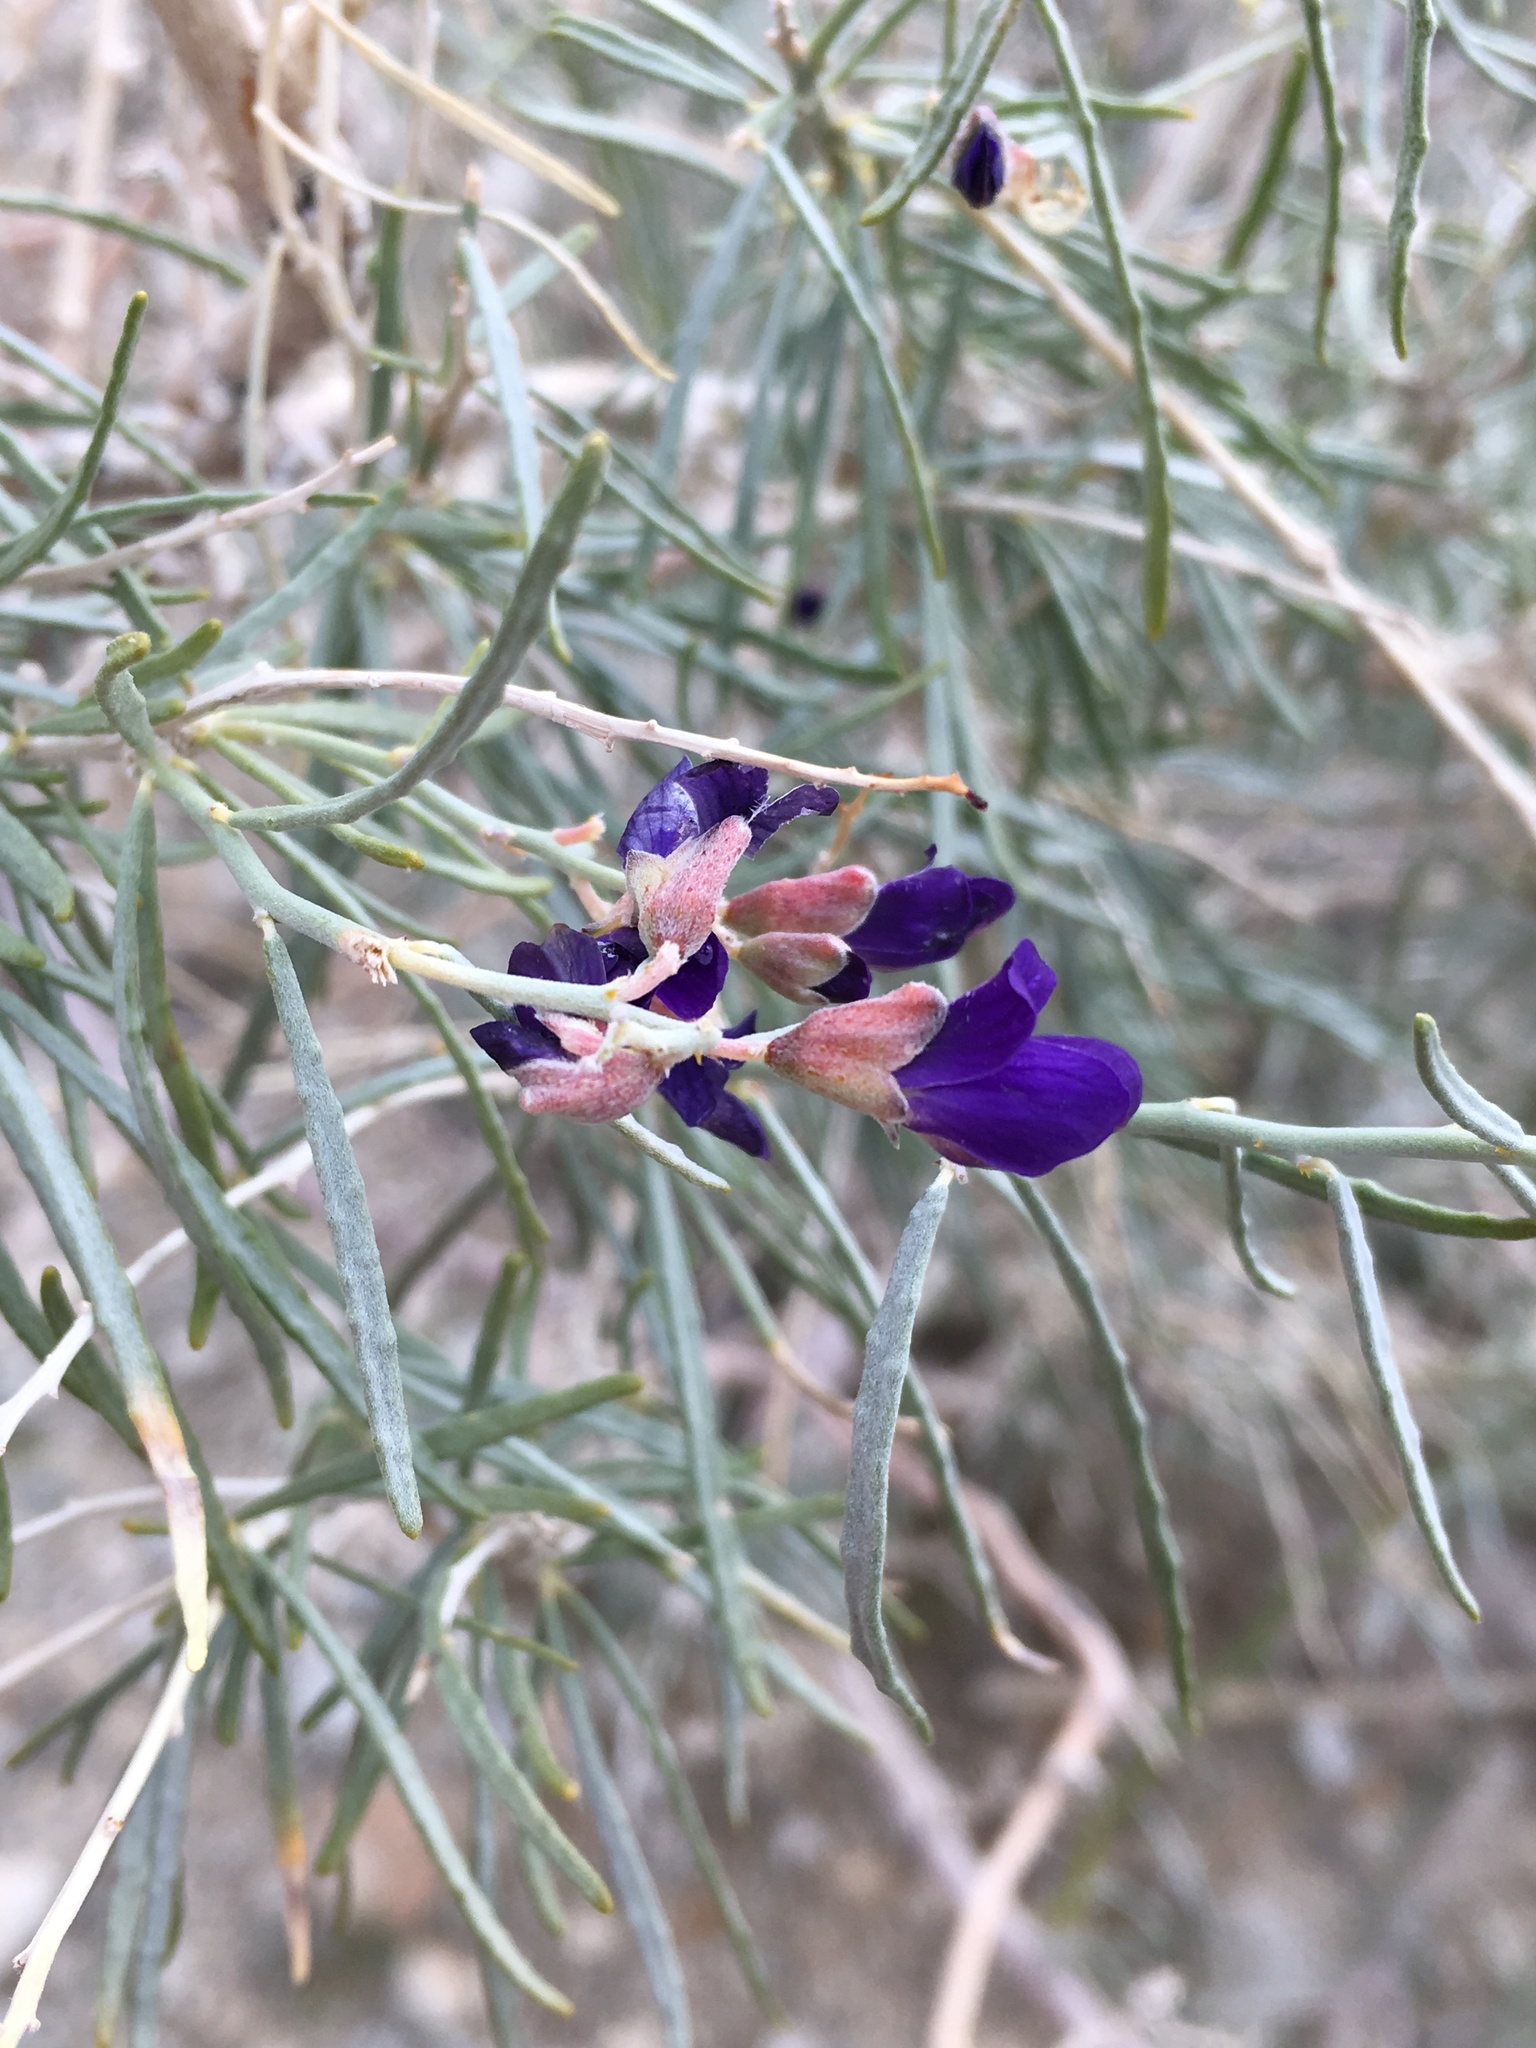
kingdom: Plantae
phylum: Tracheophyta
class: Magnoliopsida
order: Fabales
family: Fabaceae
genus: Psorothamnus
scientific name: Psorothamnus schottii
